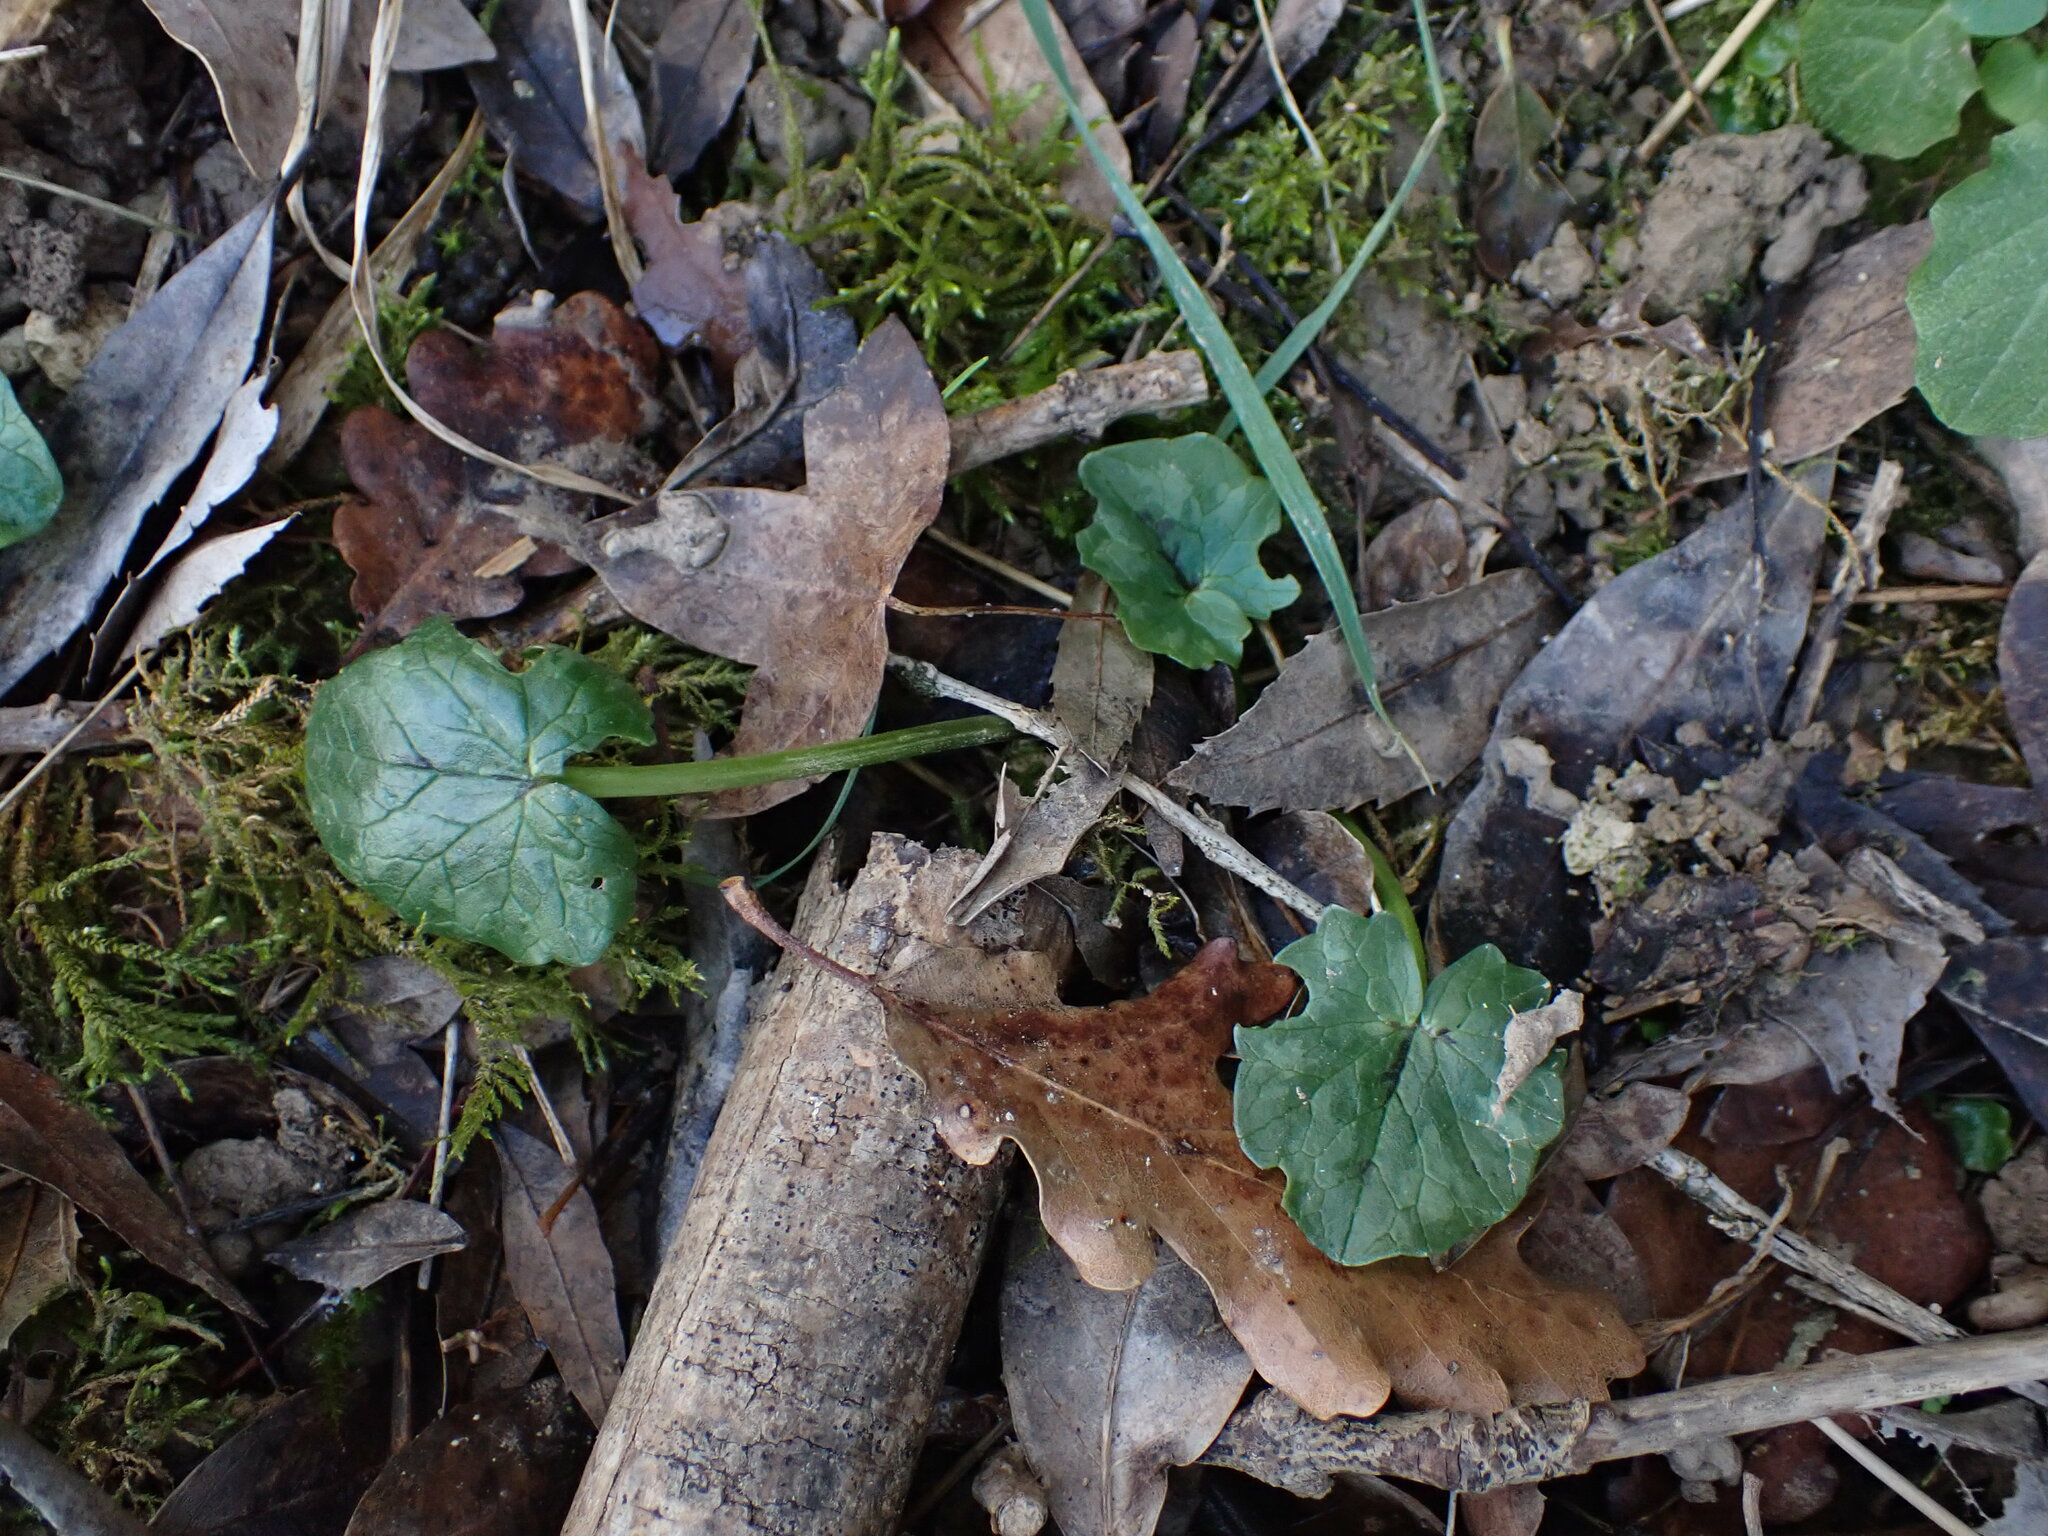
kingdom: Plantae
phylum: Tracheophyta
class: Magnoliopsida
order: Ranunculales
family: Ranunculaceae
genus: Ficaria
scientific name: Ficaria verna
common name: Lesser celandine
